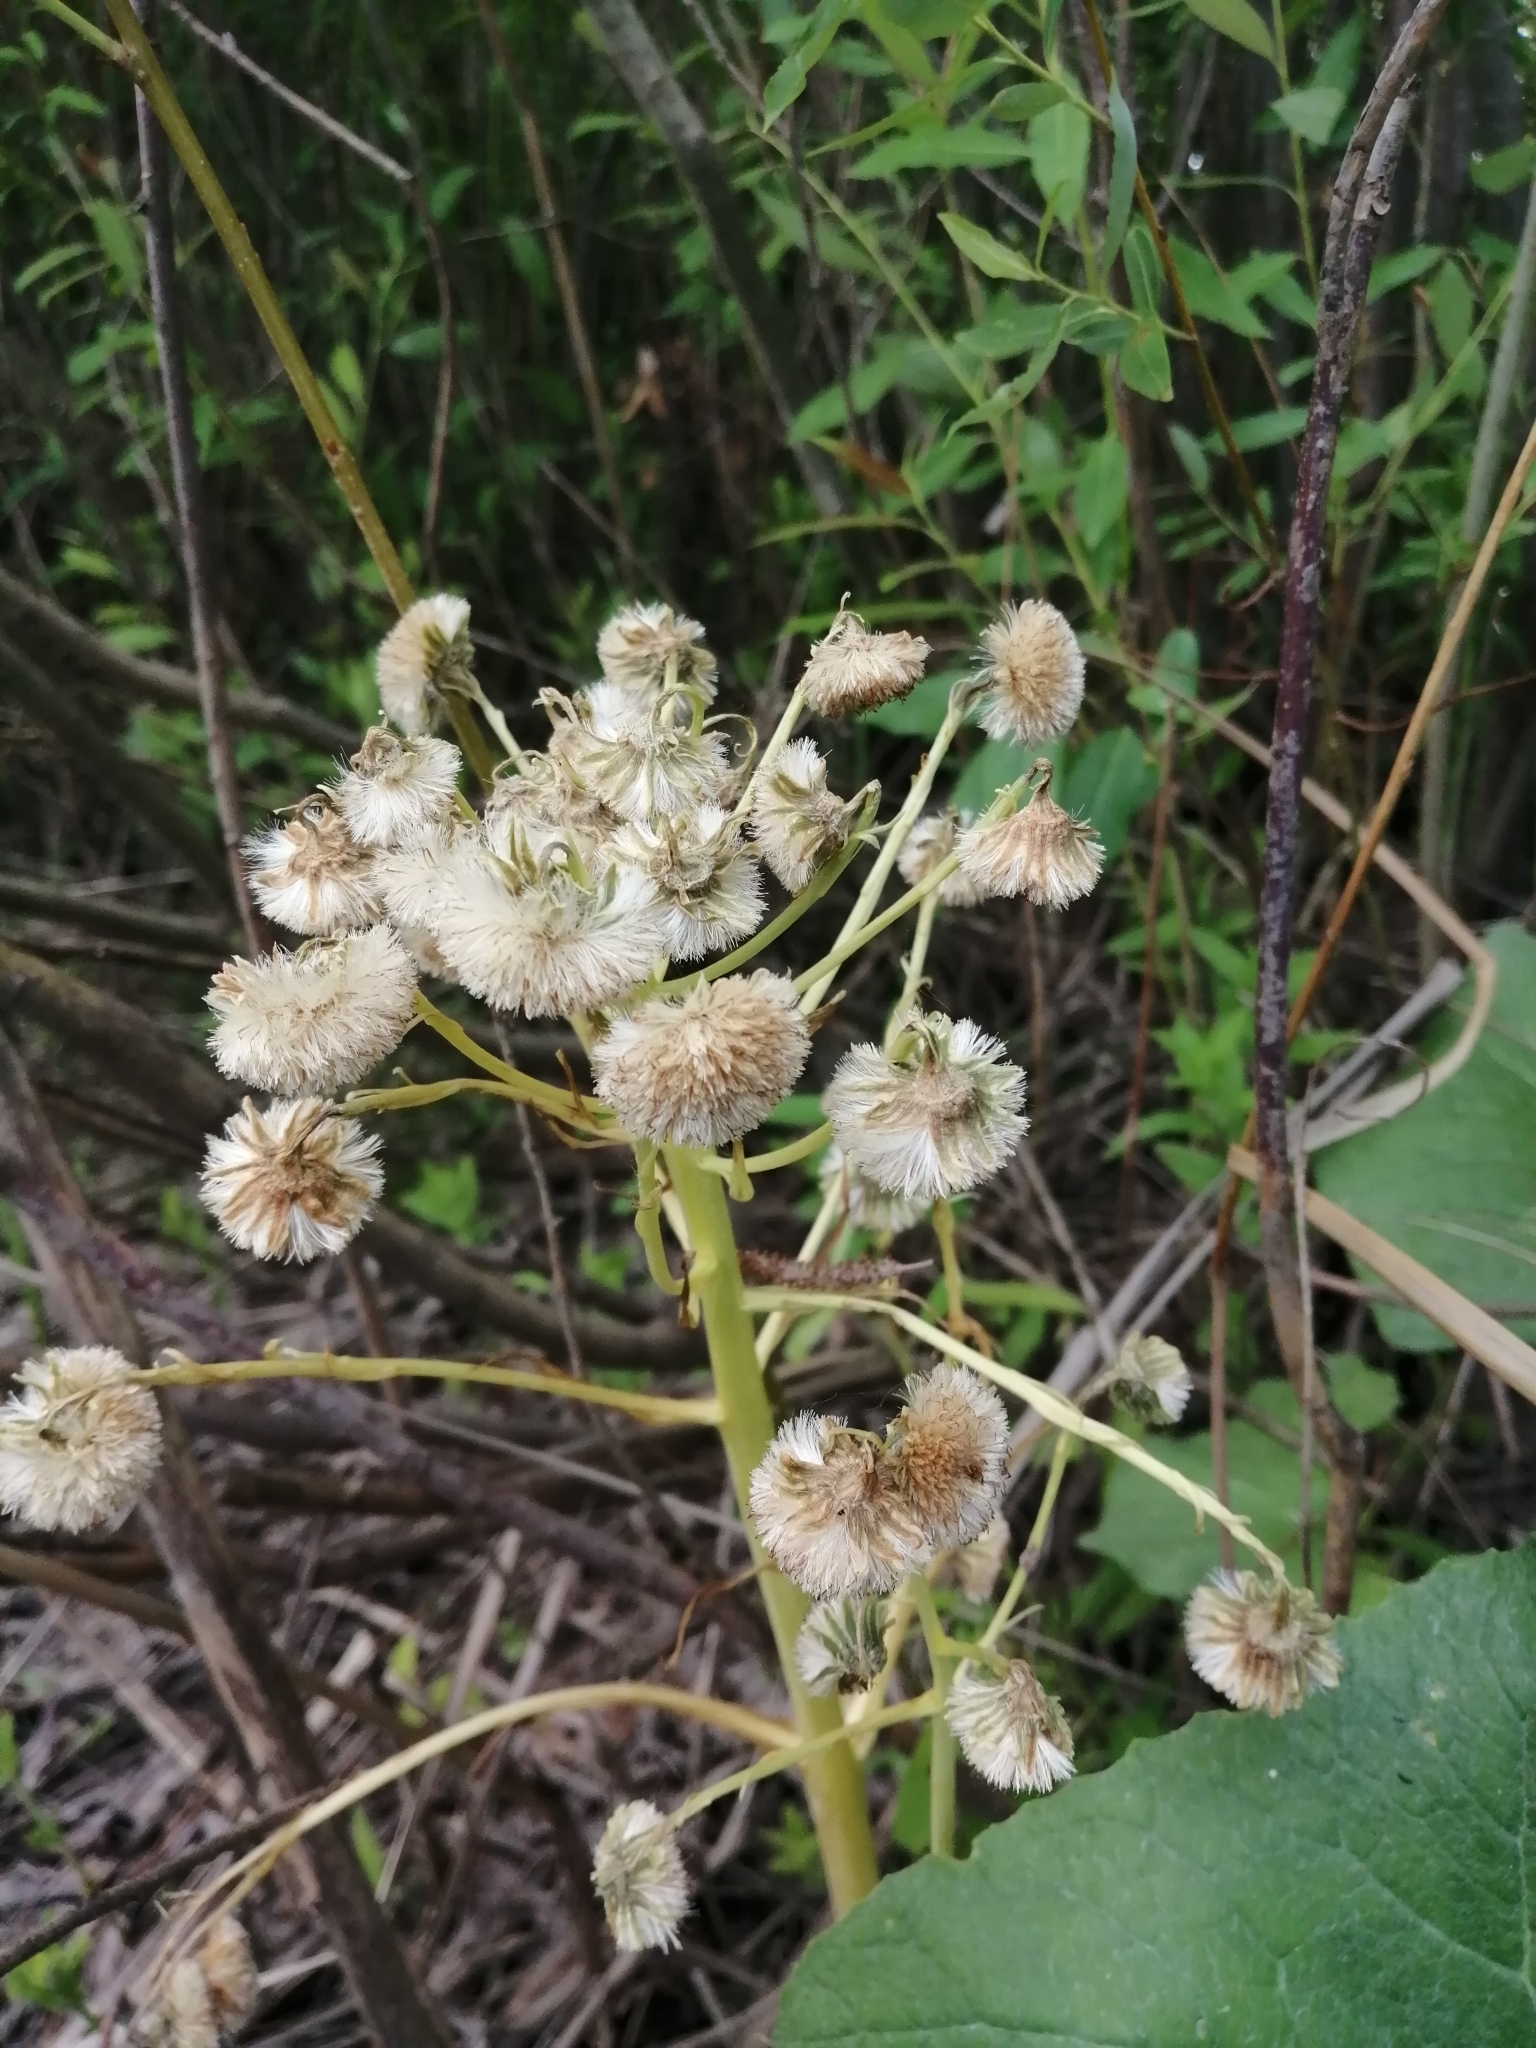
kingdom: Plantae
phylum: Tracheophyta
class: Magnoliopsida
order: Asterales
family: Asteraceae
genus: Petasites
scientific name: Petasites spurius
